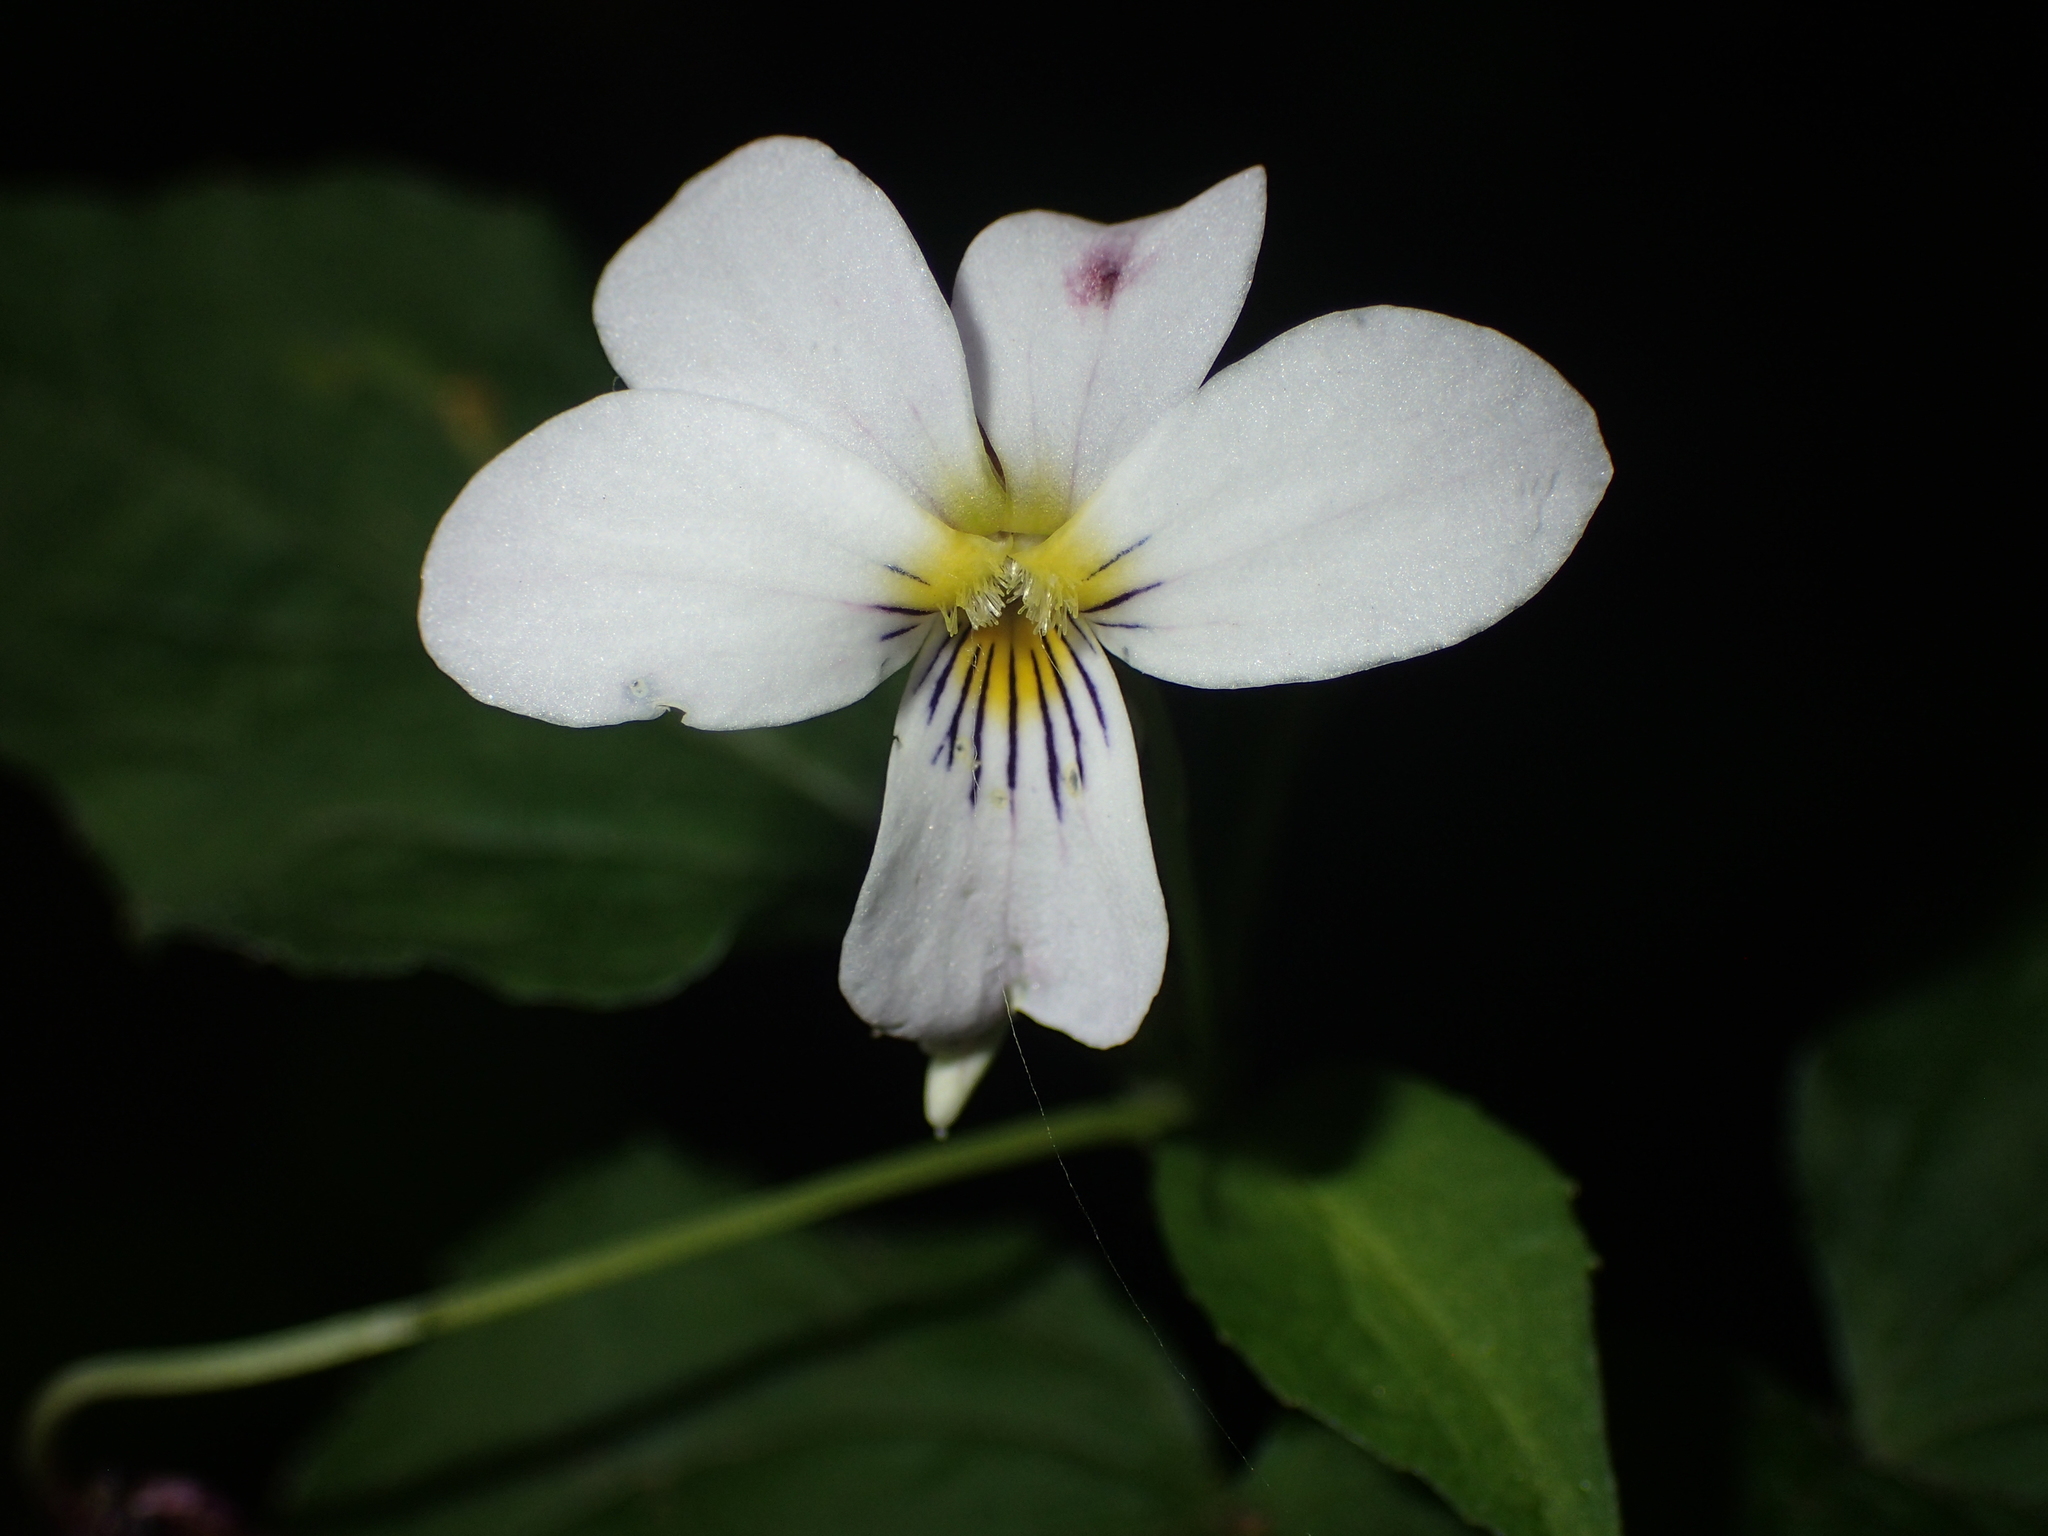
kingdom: Plantae
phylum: Tracheophyta
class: Magnoliopsida
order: Malpighiales
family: Violaceae
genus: Viola
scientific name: Viola canadensis
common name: Canada violet
